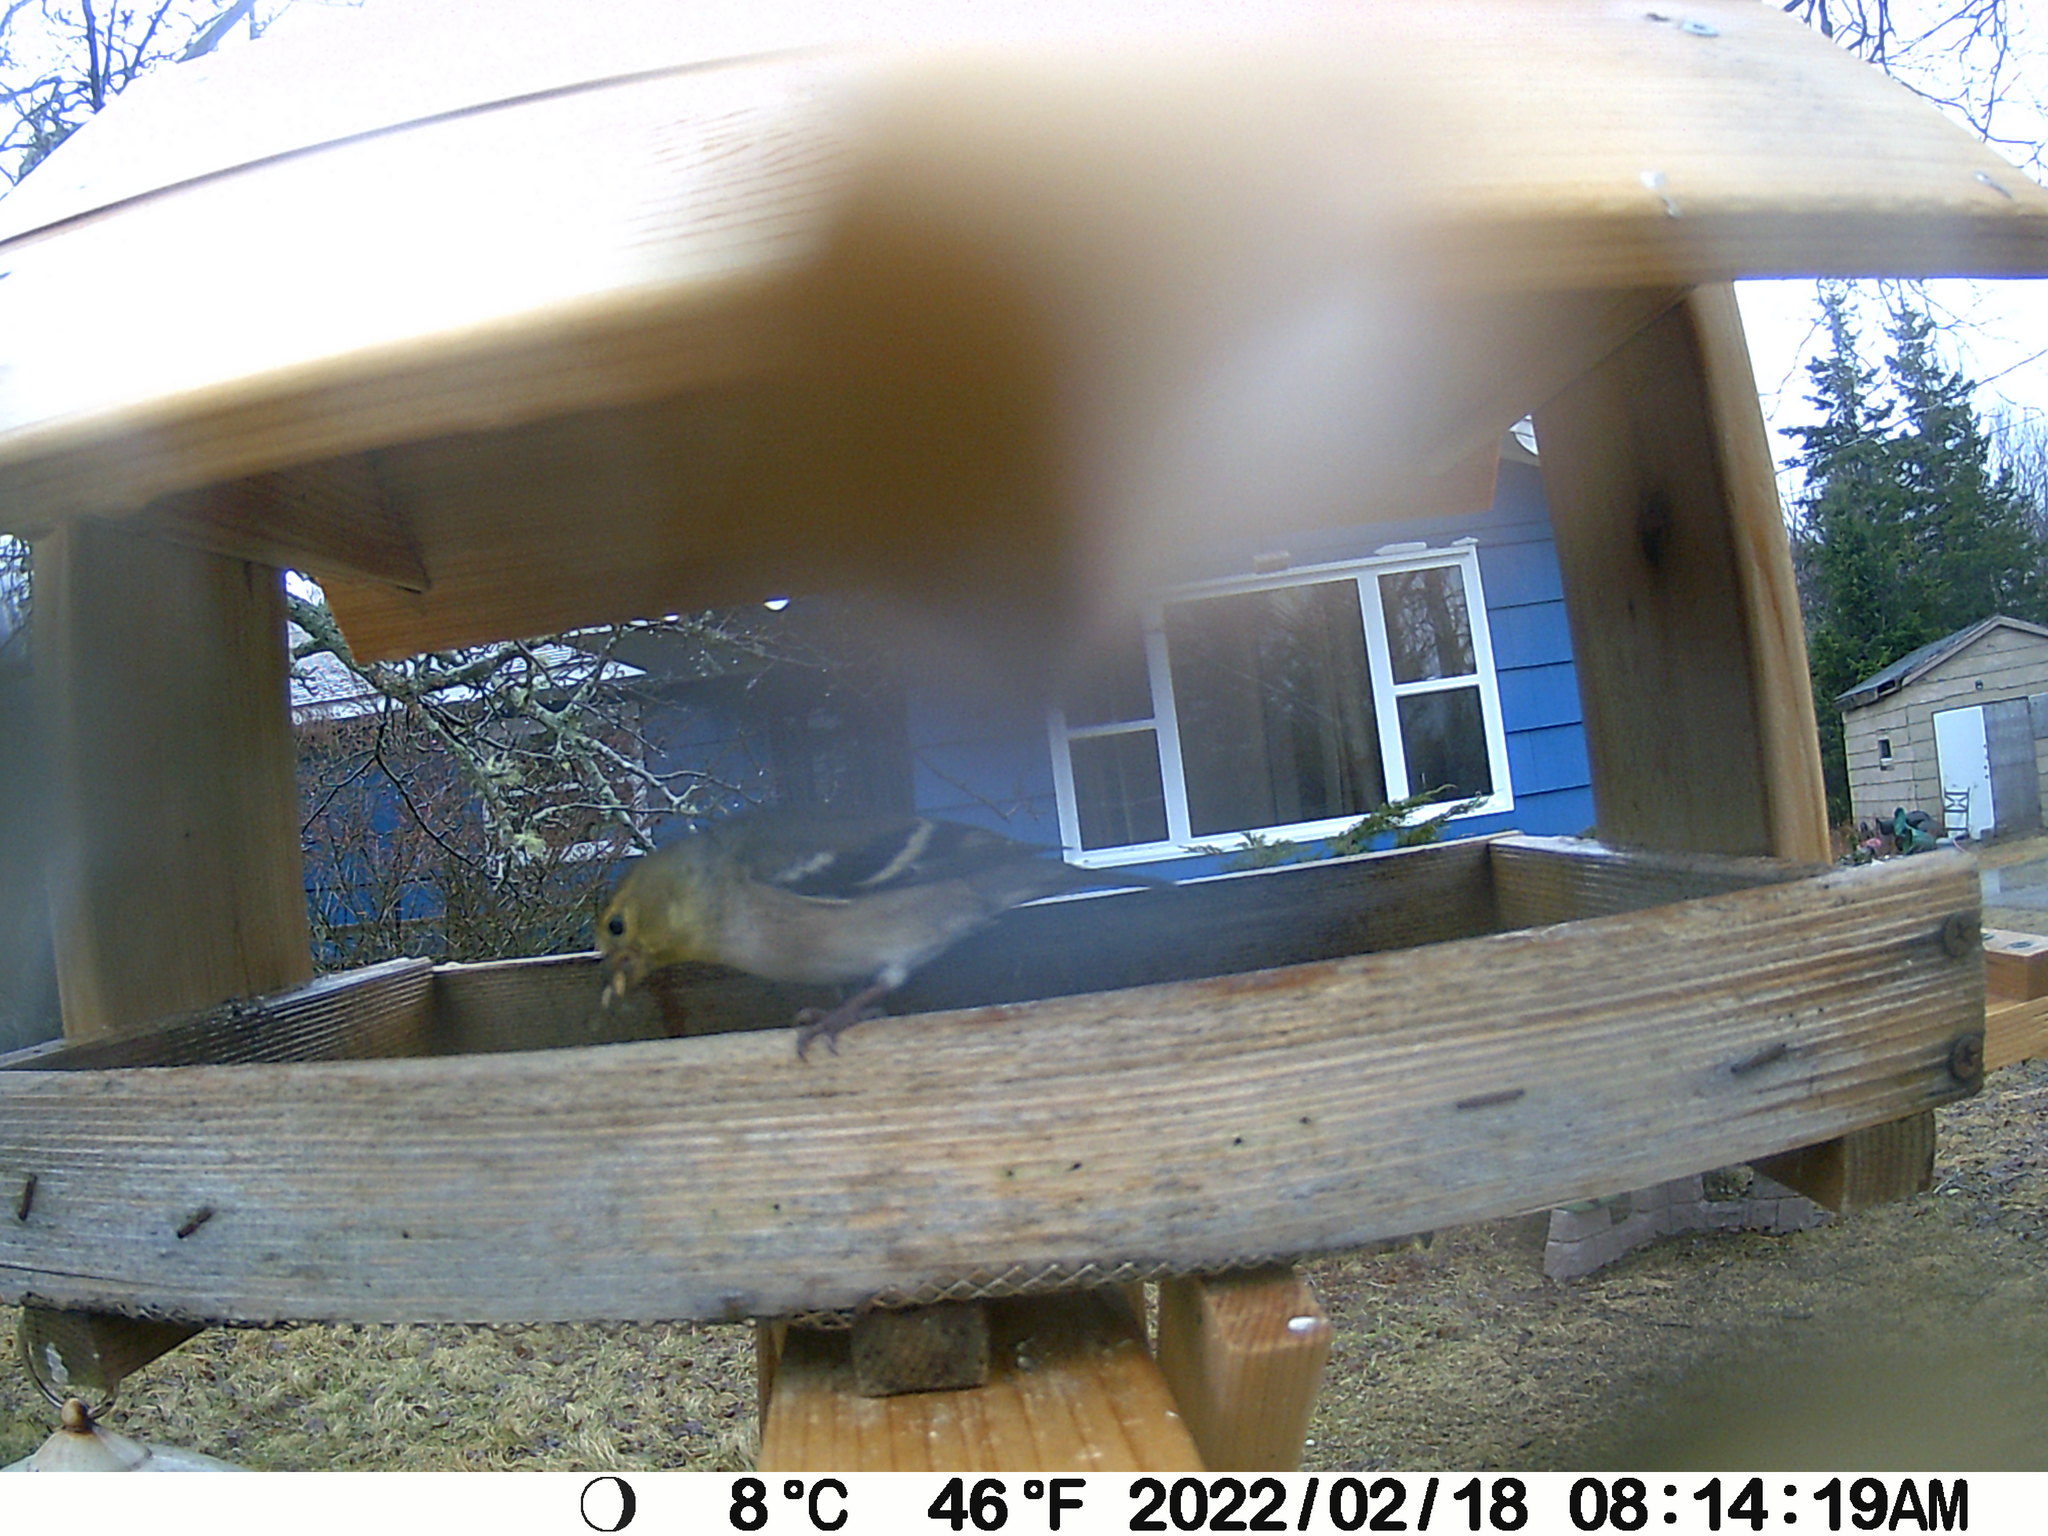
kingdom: Animalia
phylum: Chordata
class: Aves
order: Passeriformes
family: Fringillidae
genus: Spinus
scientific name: Spinus tristis
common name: American goldfinch
